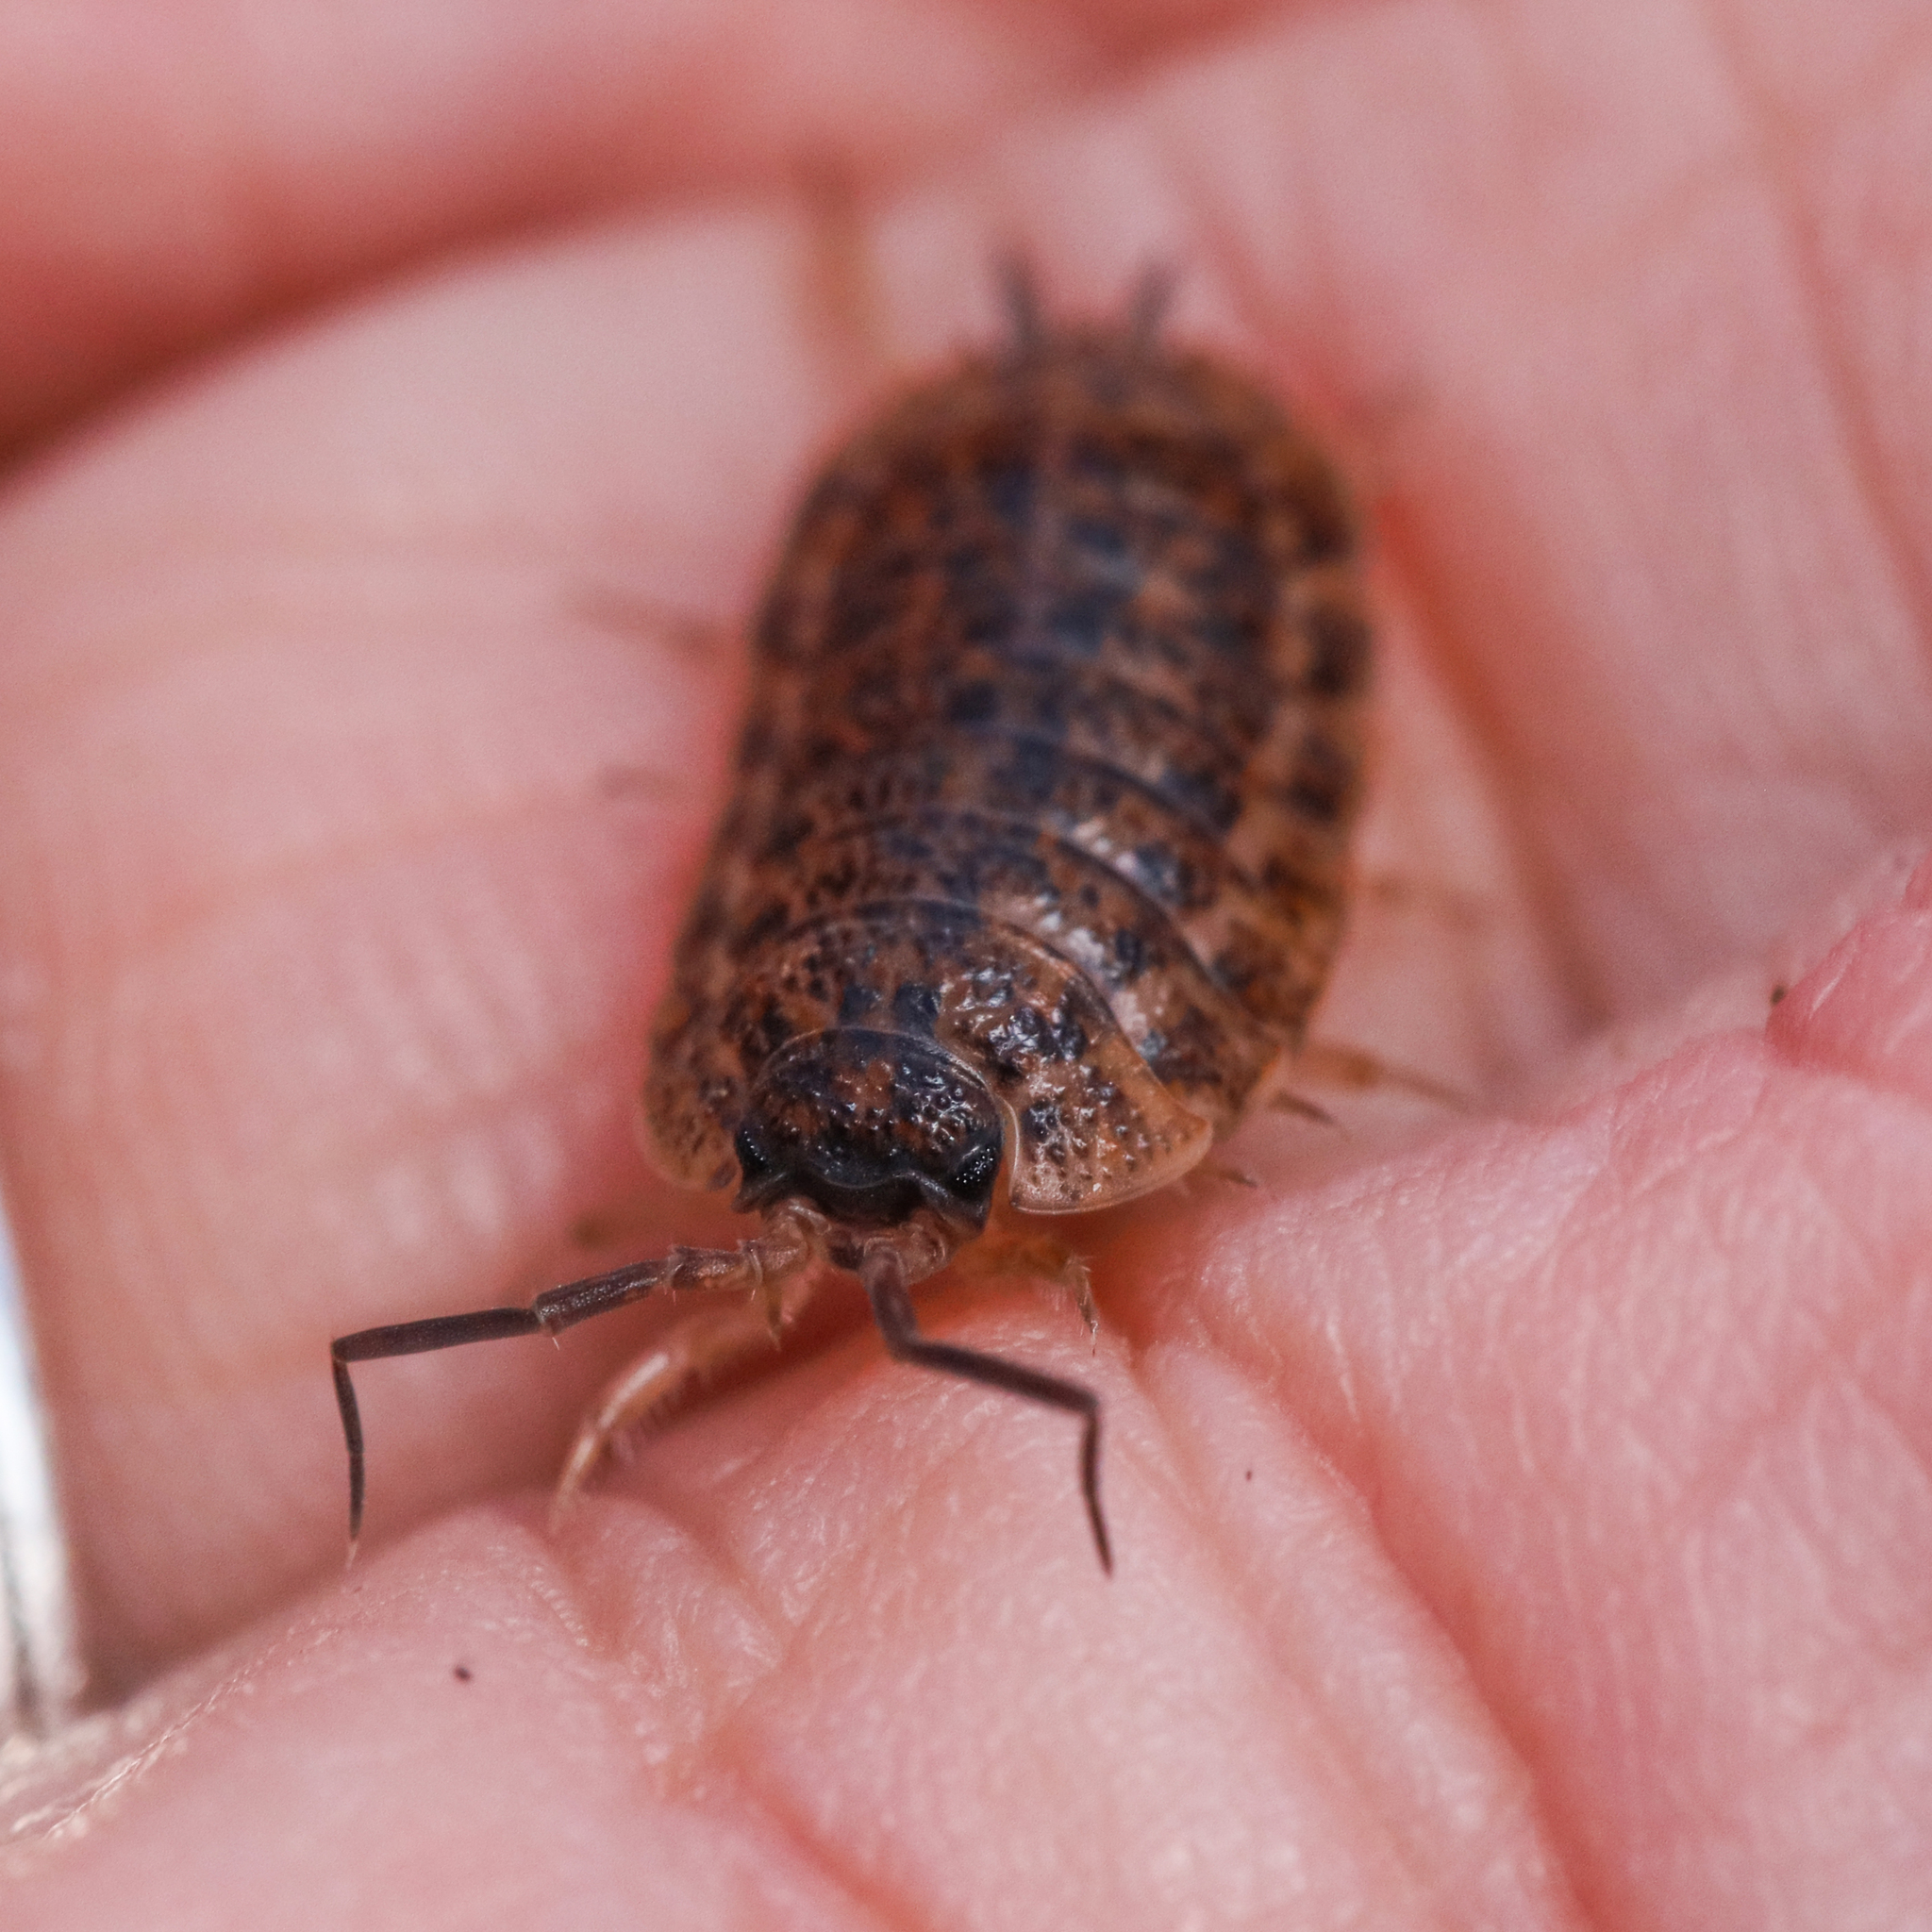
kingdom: Animalia
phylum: Arthropoda
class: Malacostraca
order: Isopoda
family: Trachelipodidae
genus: Trachelipus
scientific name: Trachelipus rathkii
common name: Isopod
